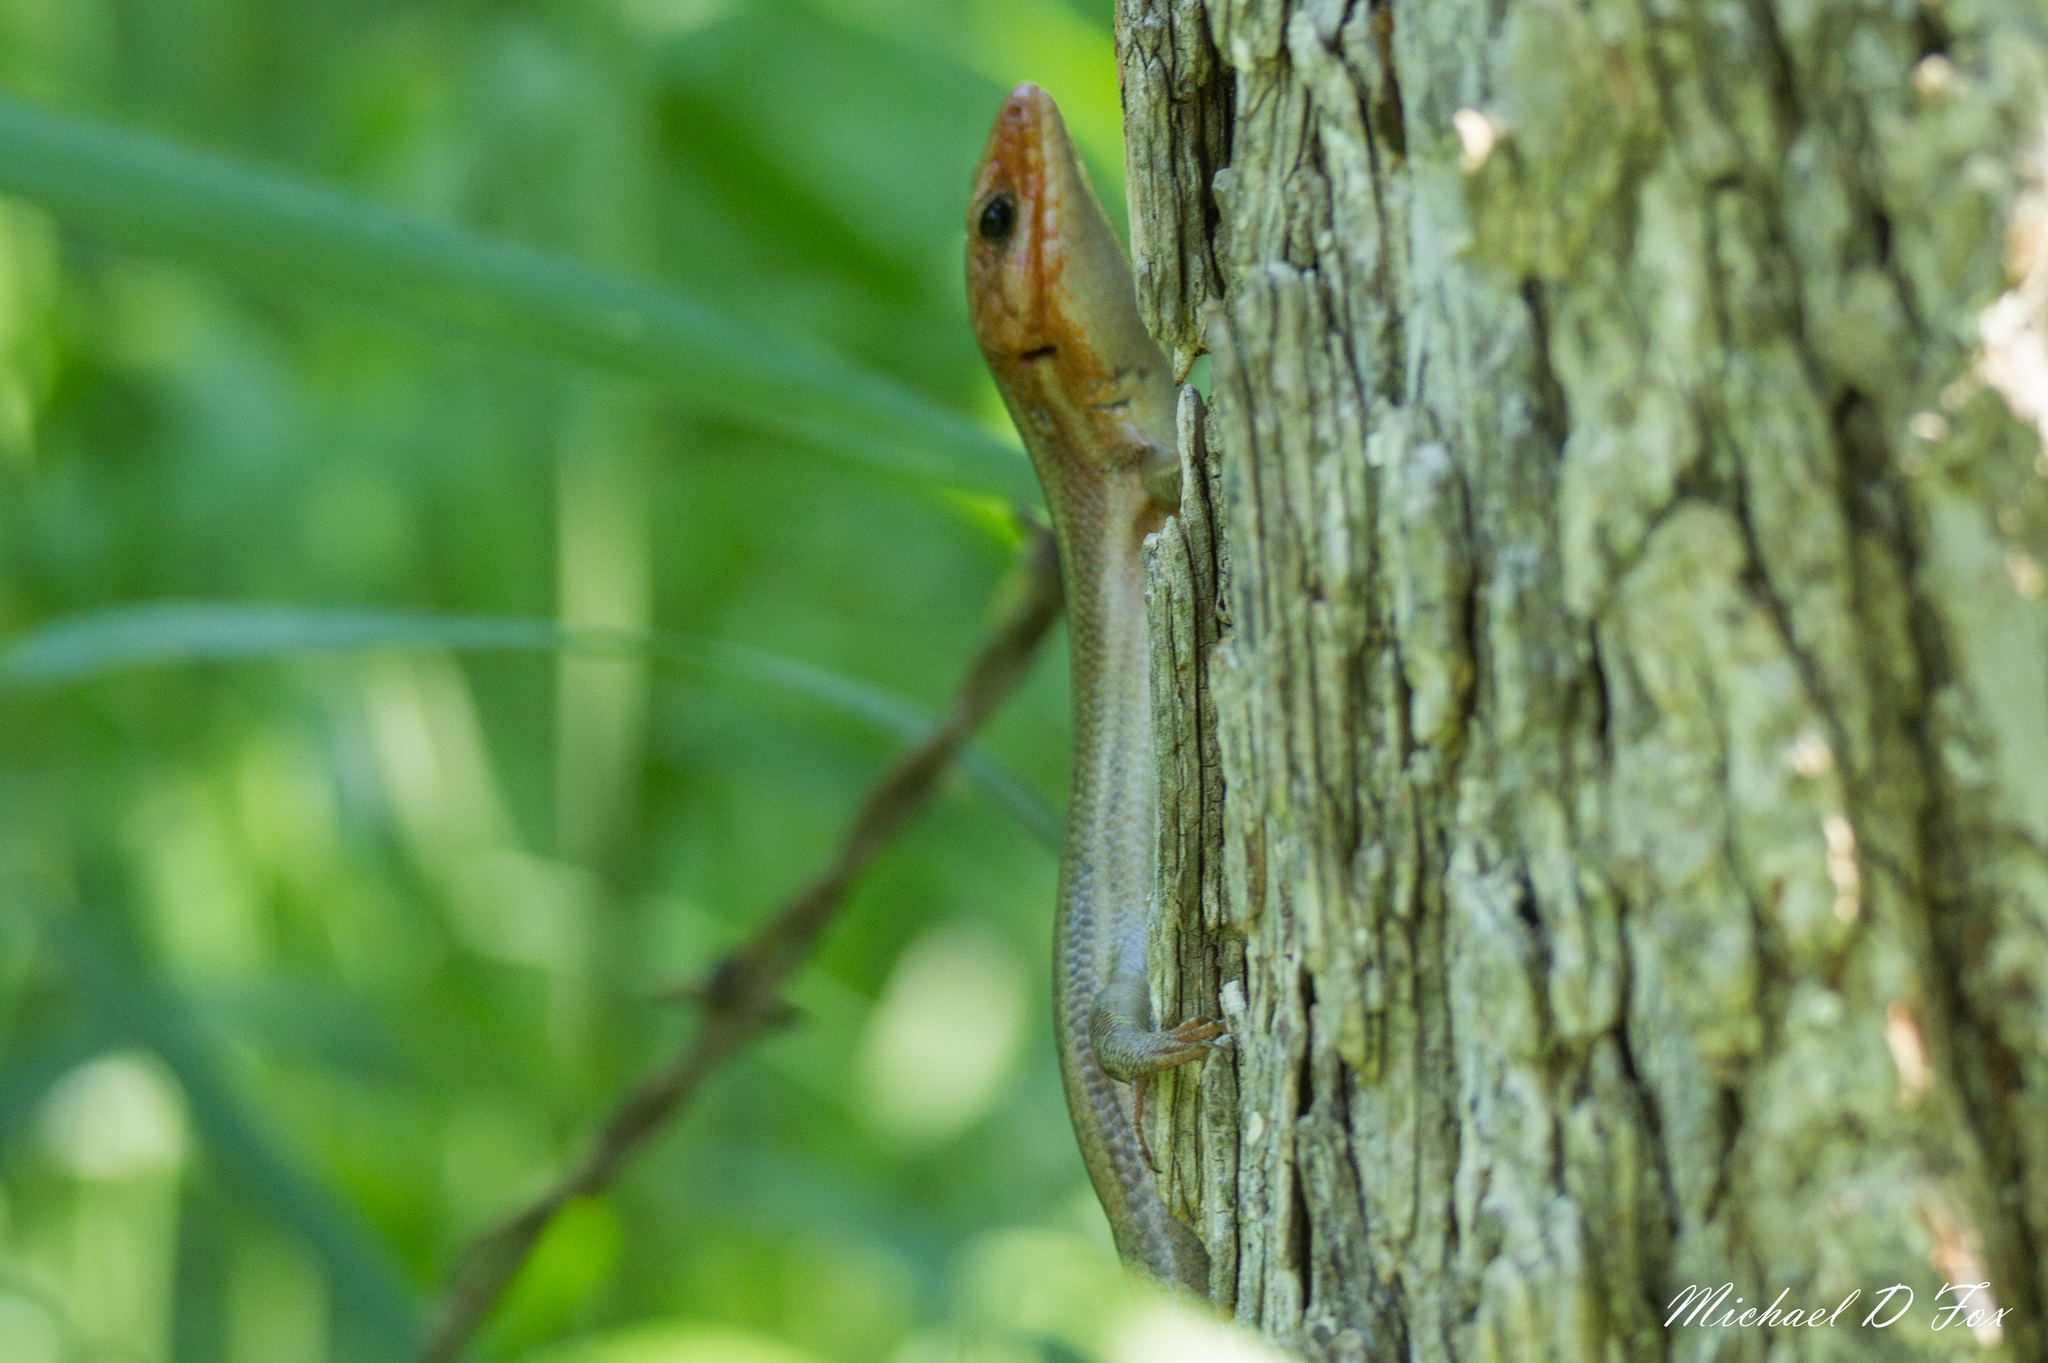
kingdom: Animalia
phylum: Chordata
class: Squamata
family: Scincidae
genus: Plestiodon
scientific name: Plestiodon
